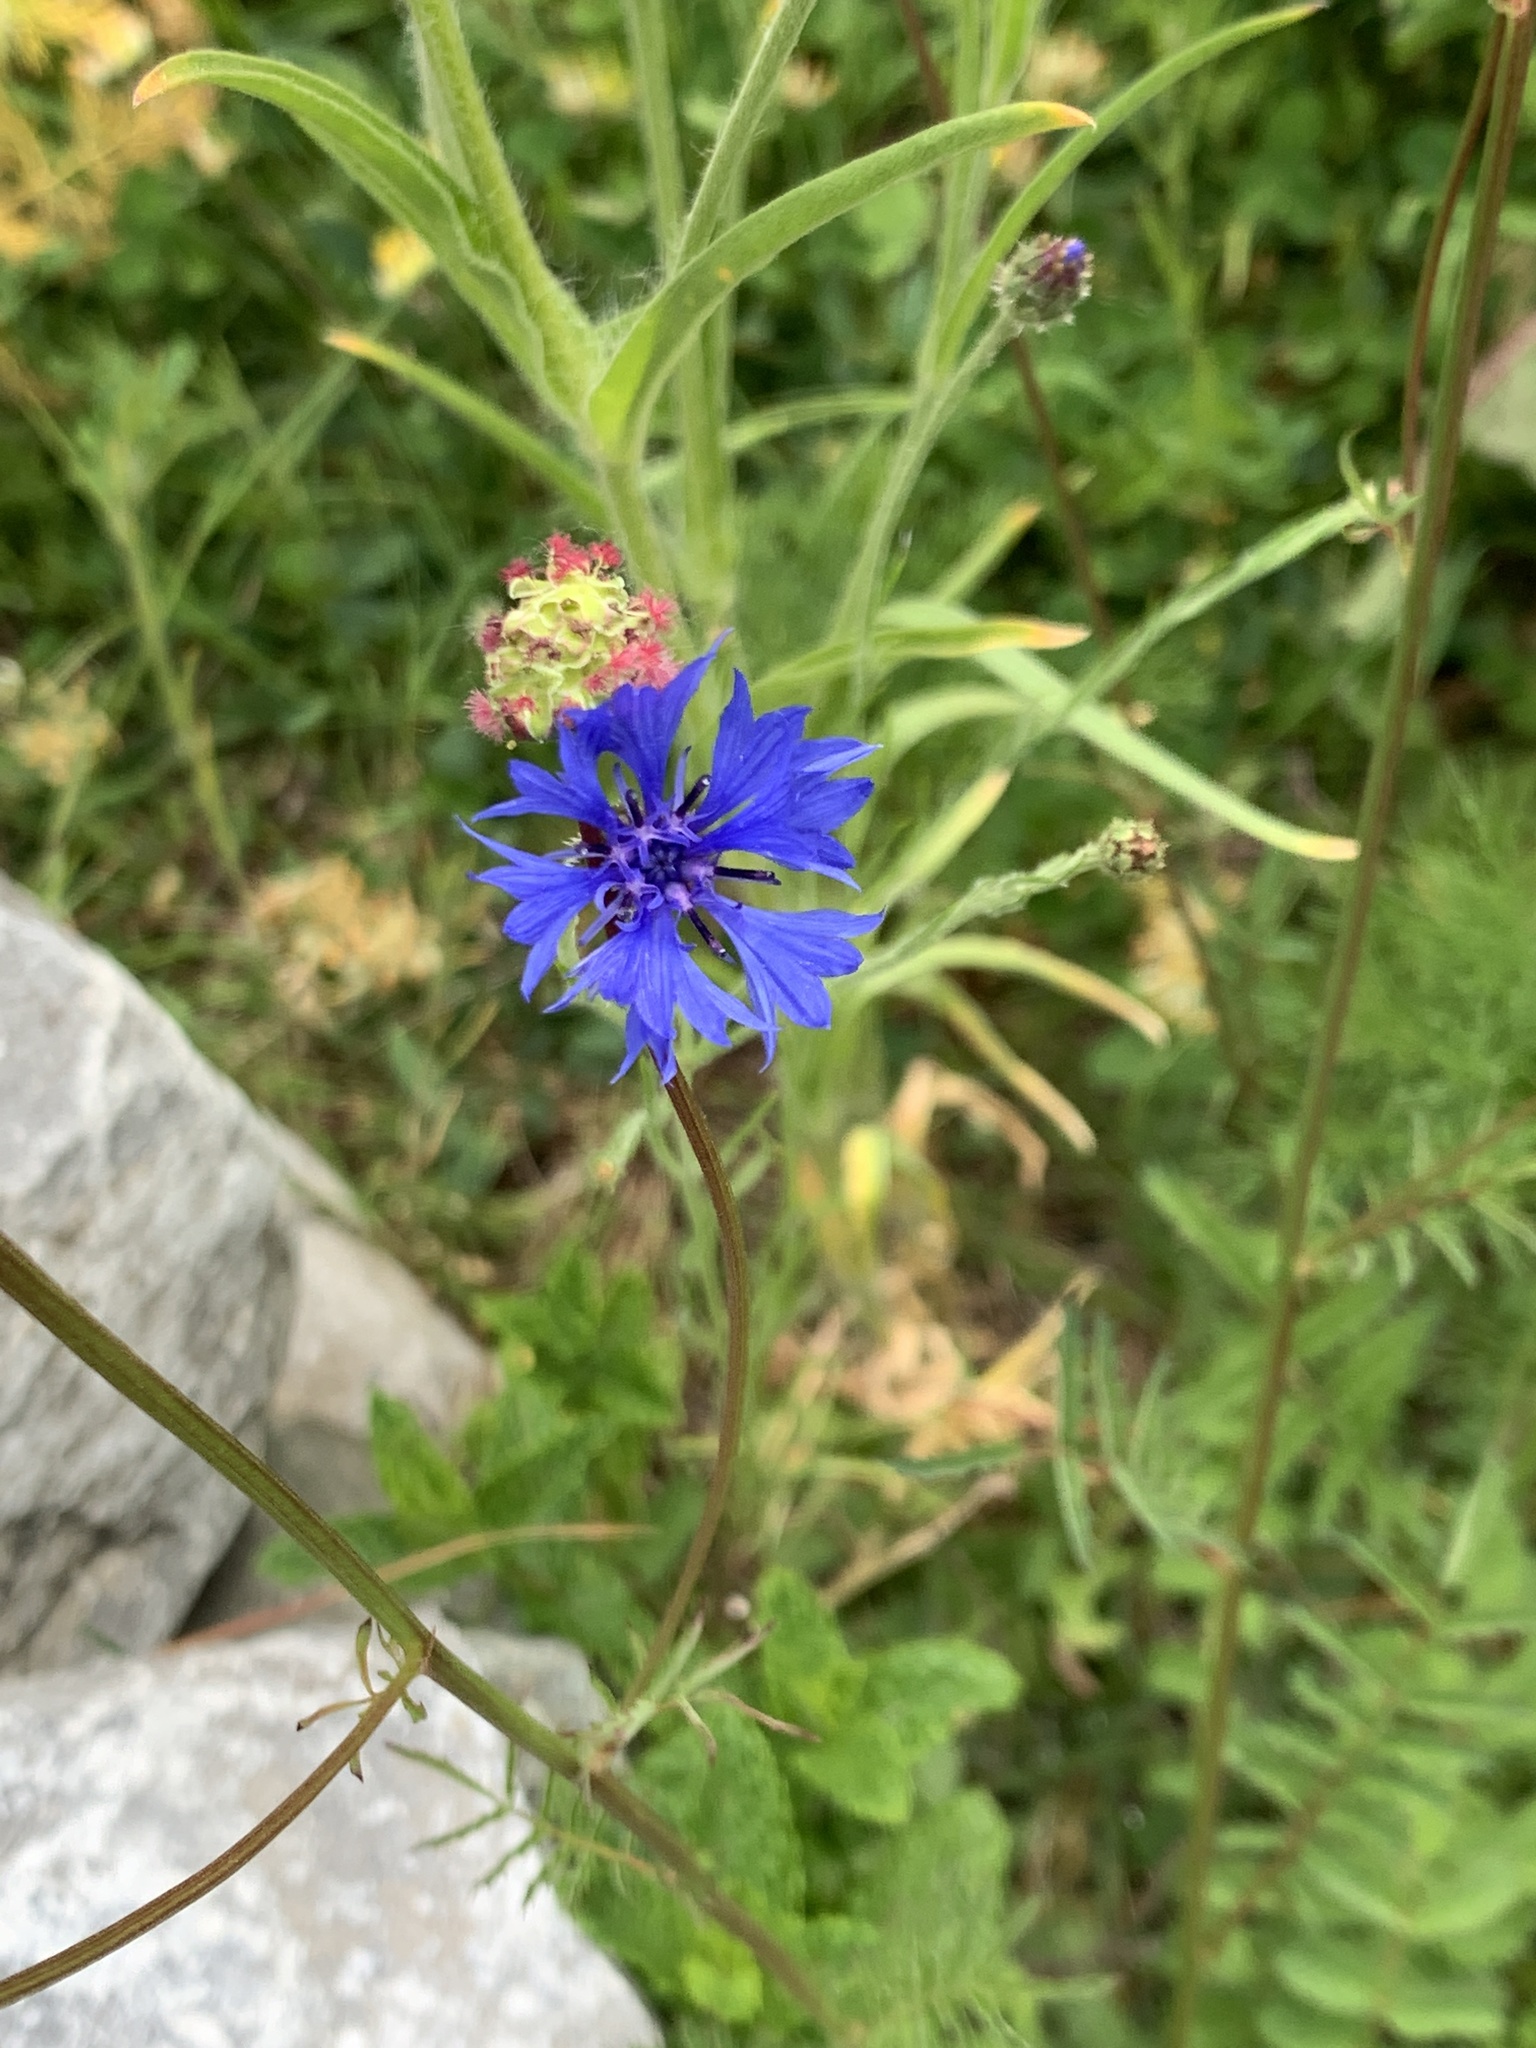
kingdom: Plantae
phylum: Tracheophyta
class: Magnoliopsida
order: Asterales
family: Asteraceae
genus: Centaurea
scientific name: Centaurea cyanus
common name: Cornflower
